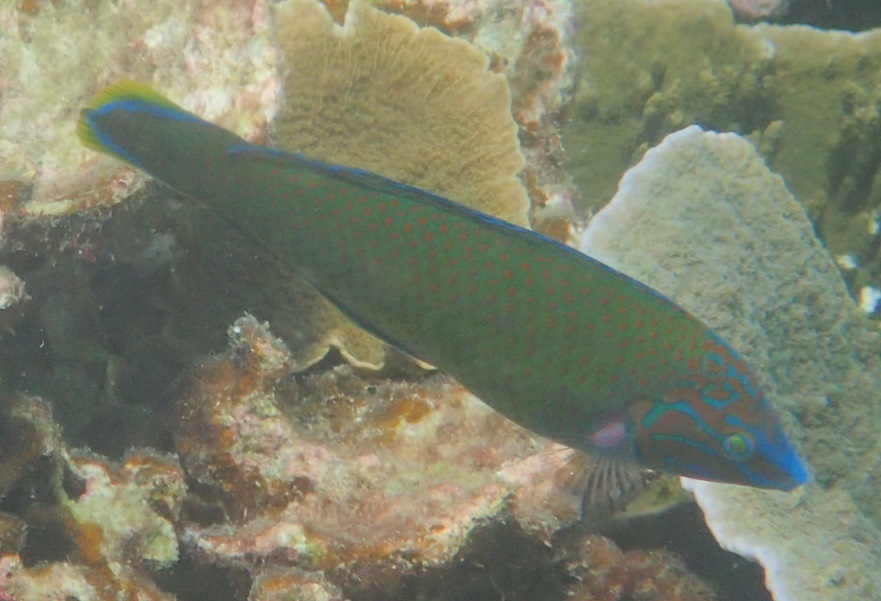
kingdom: Animalia
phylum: Chordata
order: Perciformes
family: Labridae
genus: Halichoeres
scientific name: Halichoeres leucurus
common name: Grey-head wrasse
